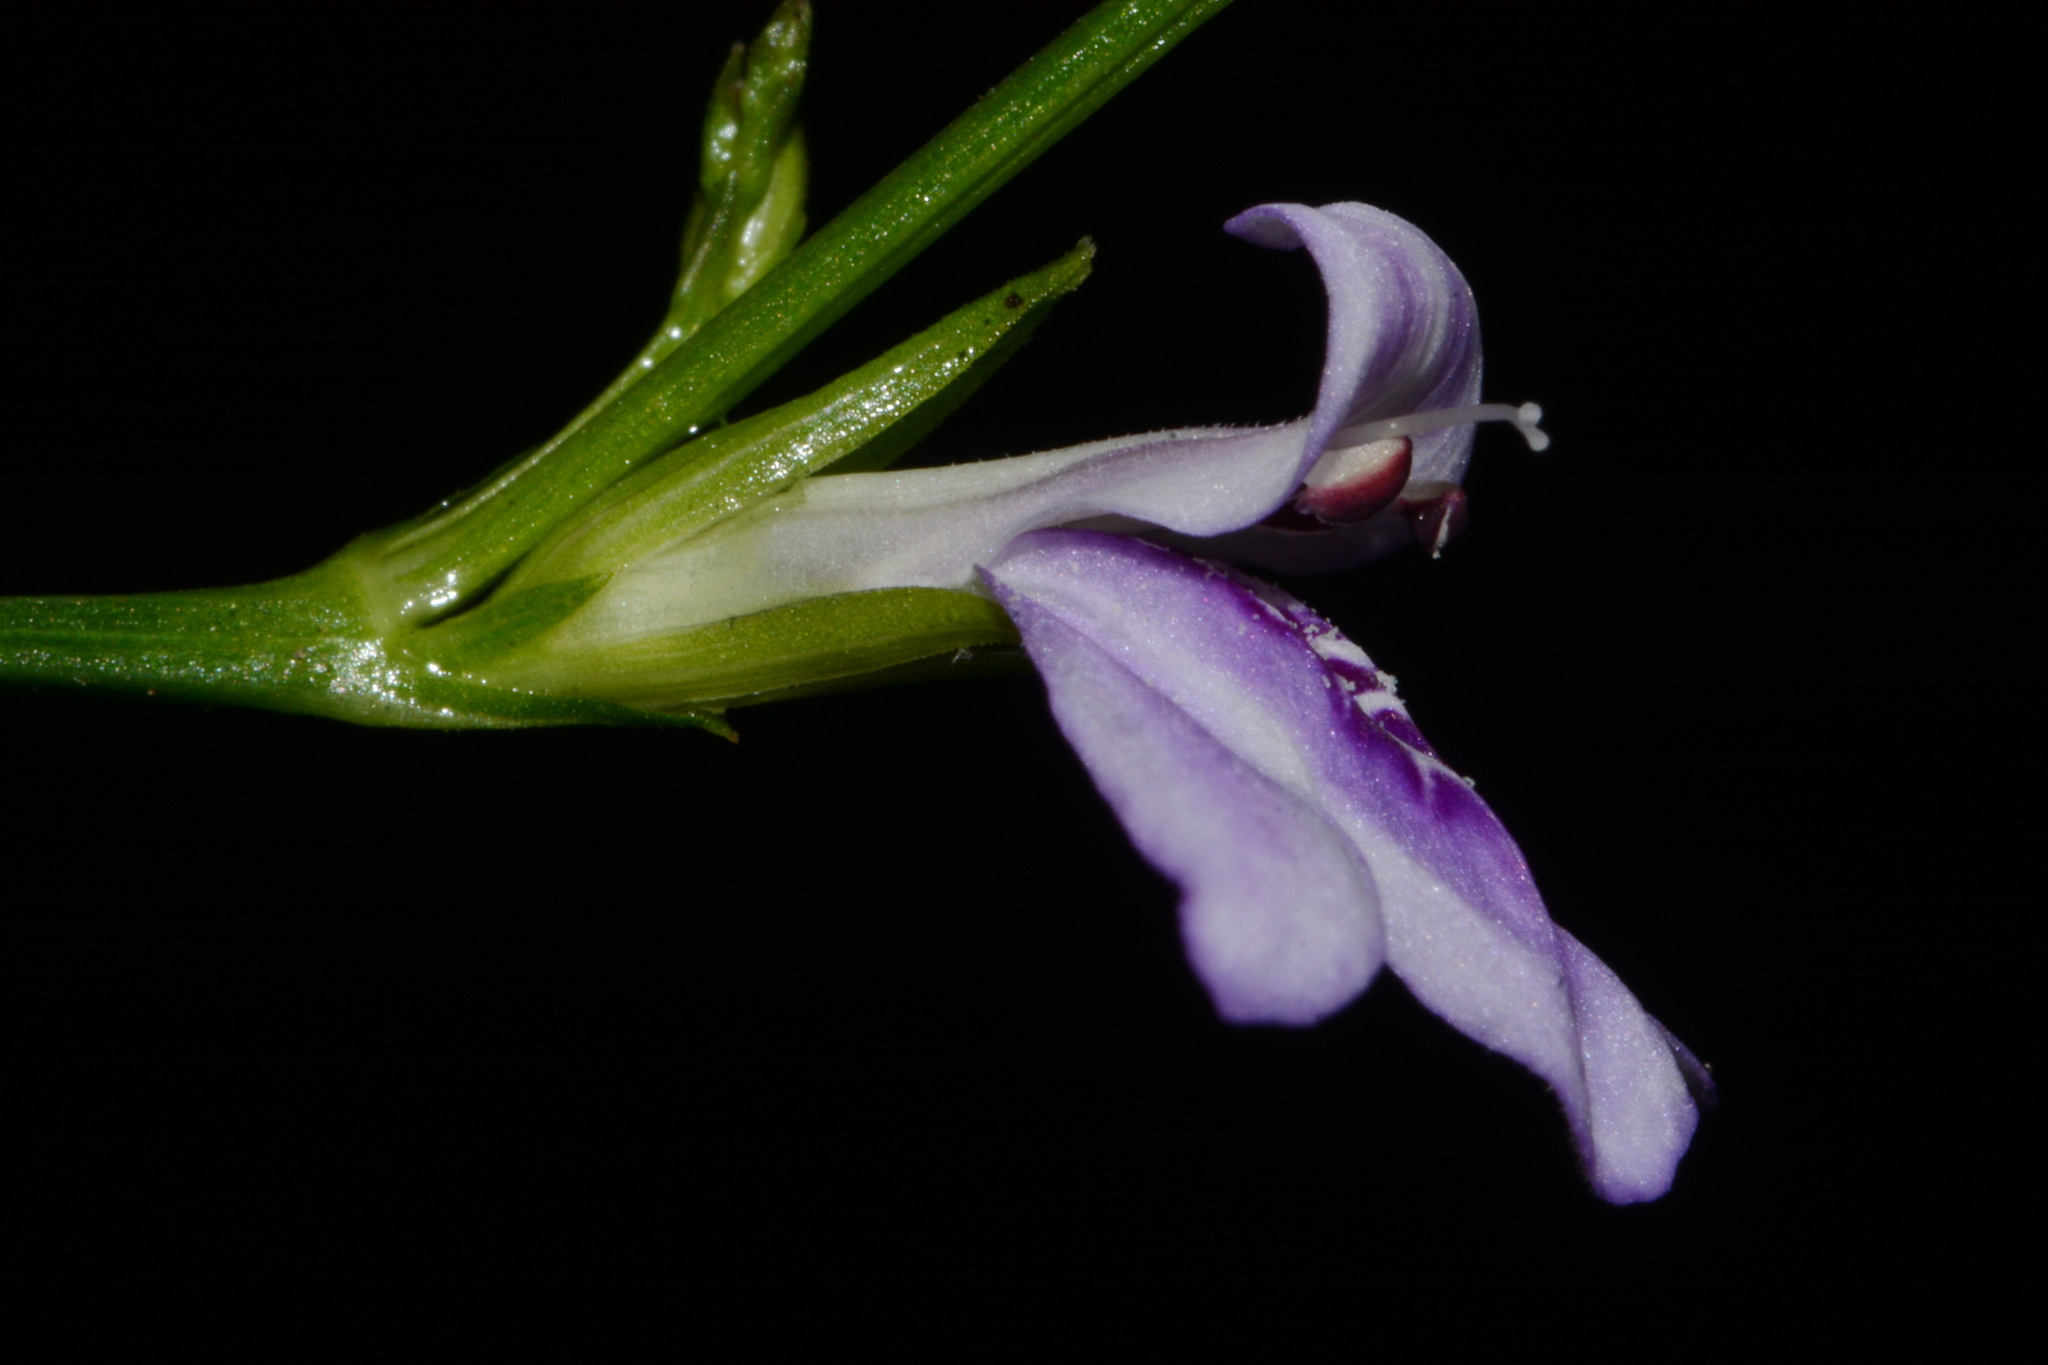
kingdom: Plantae
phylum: Tracheophyta
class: Magnoliopsida
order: Lamiales
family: Acanthaceae
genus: Justicia
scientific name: Justicia lanceolata
